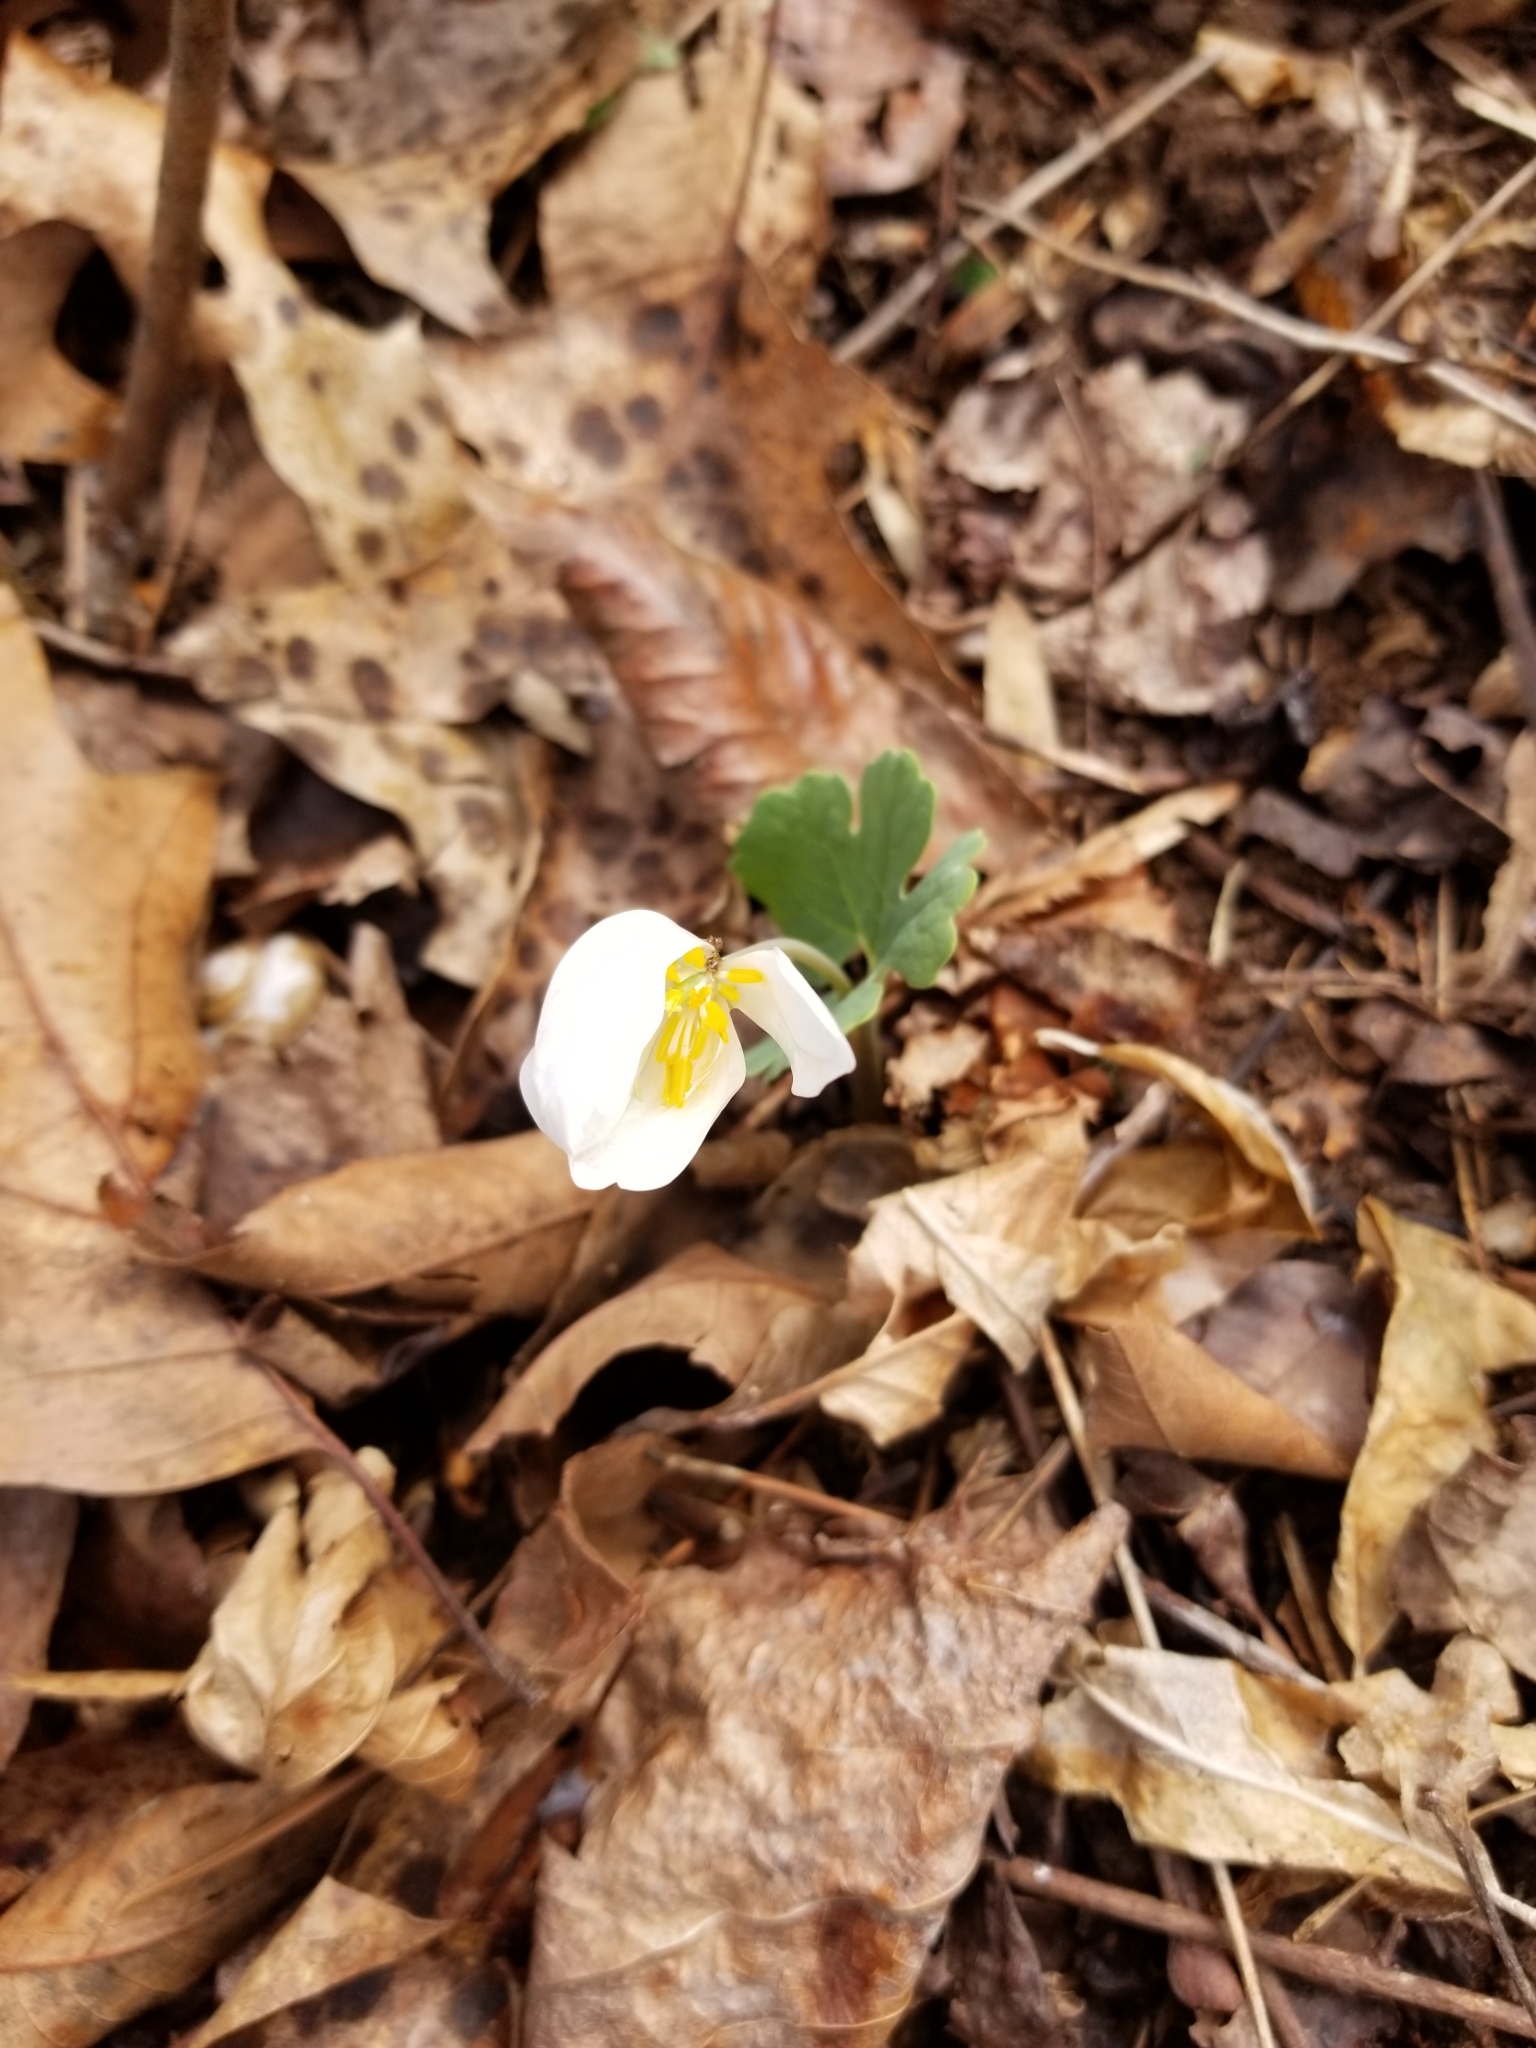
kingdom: Plantae
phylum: Tracheophyta
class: Magnoliopsida
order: Ranunculales
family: Papaveraceae
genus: Sanguinaria
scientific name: Sanguinaria canadensis
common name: Bloodroot
